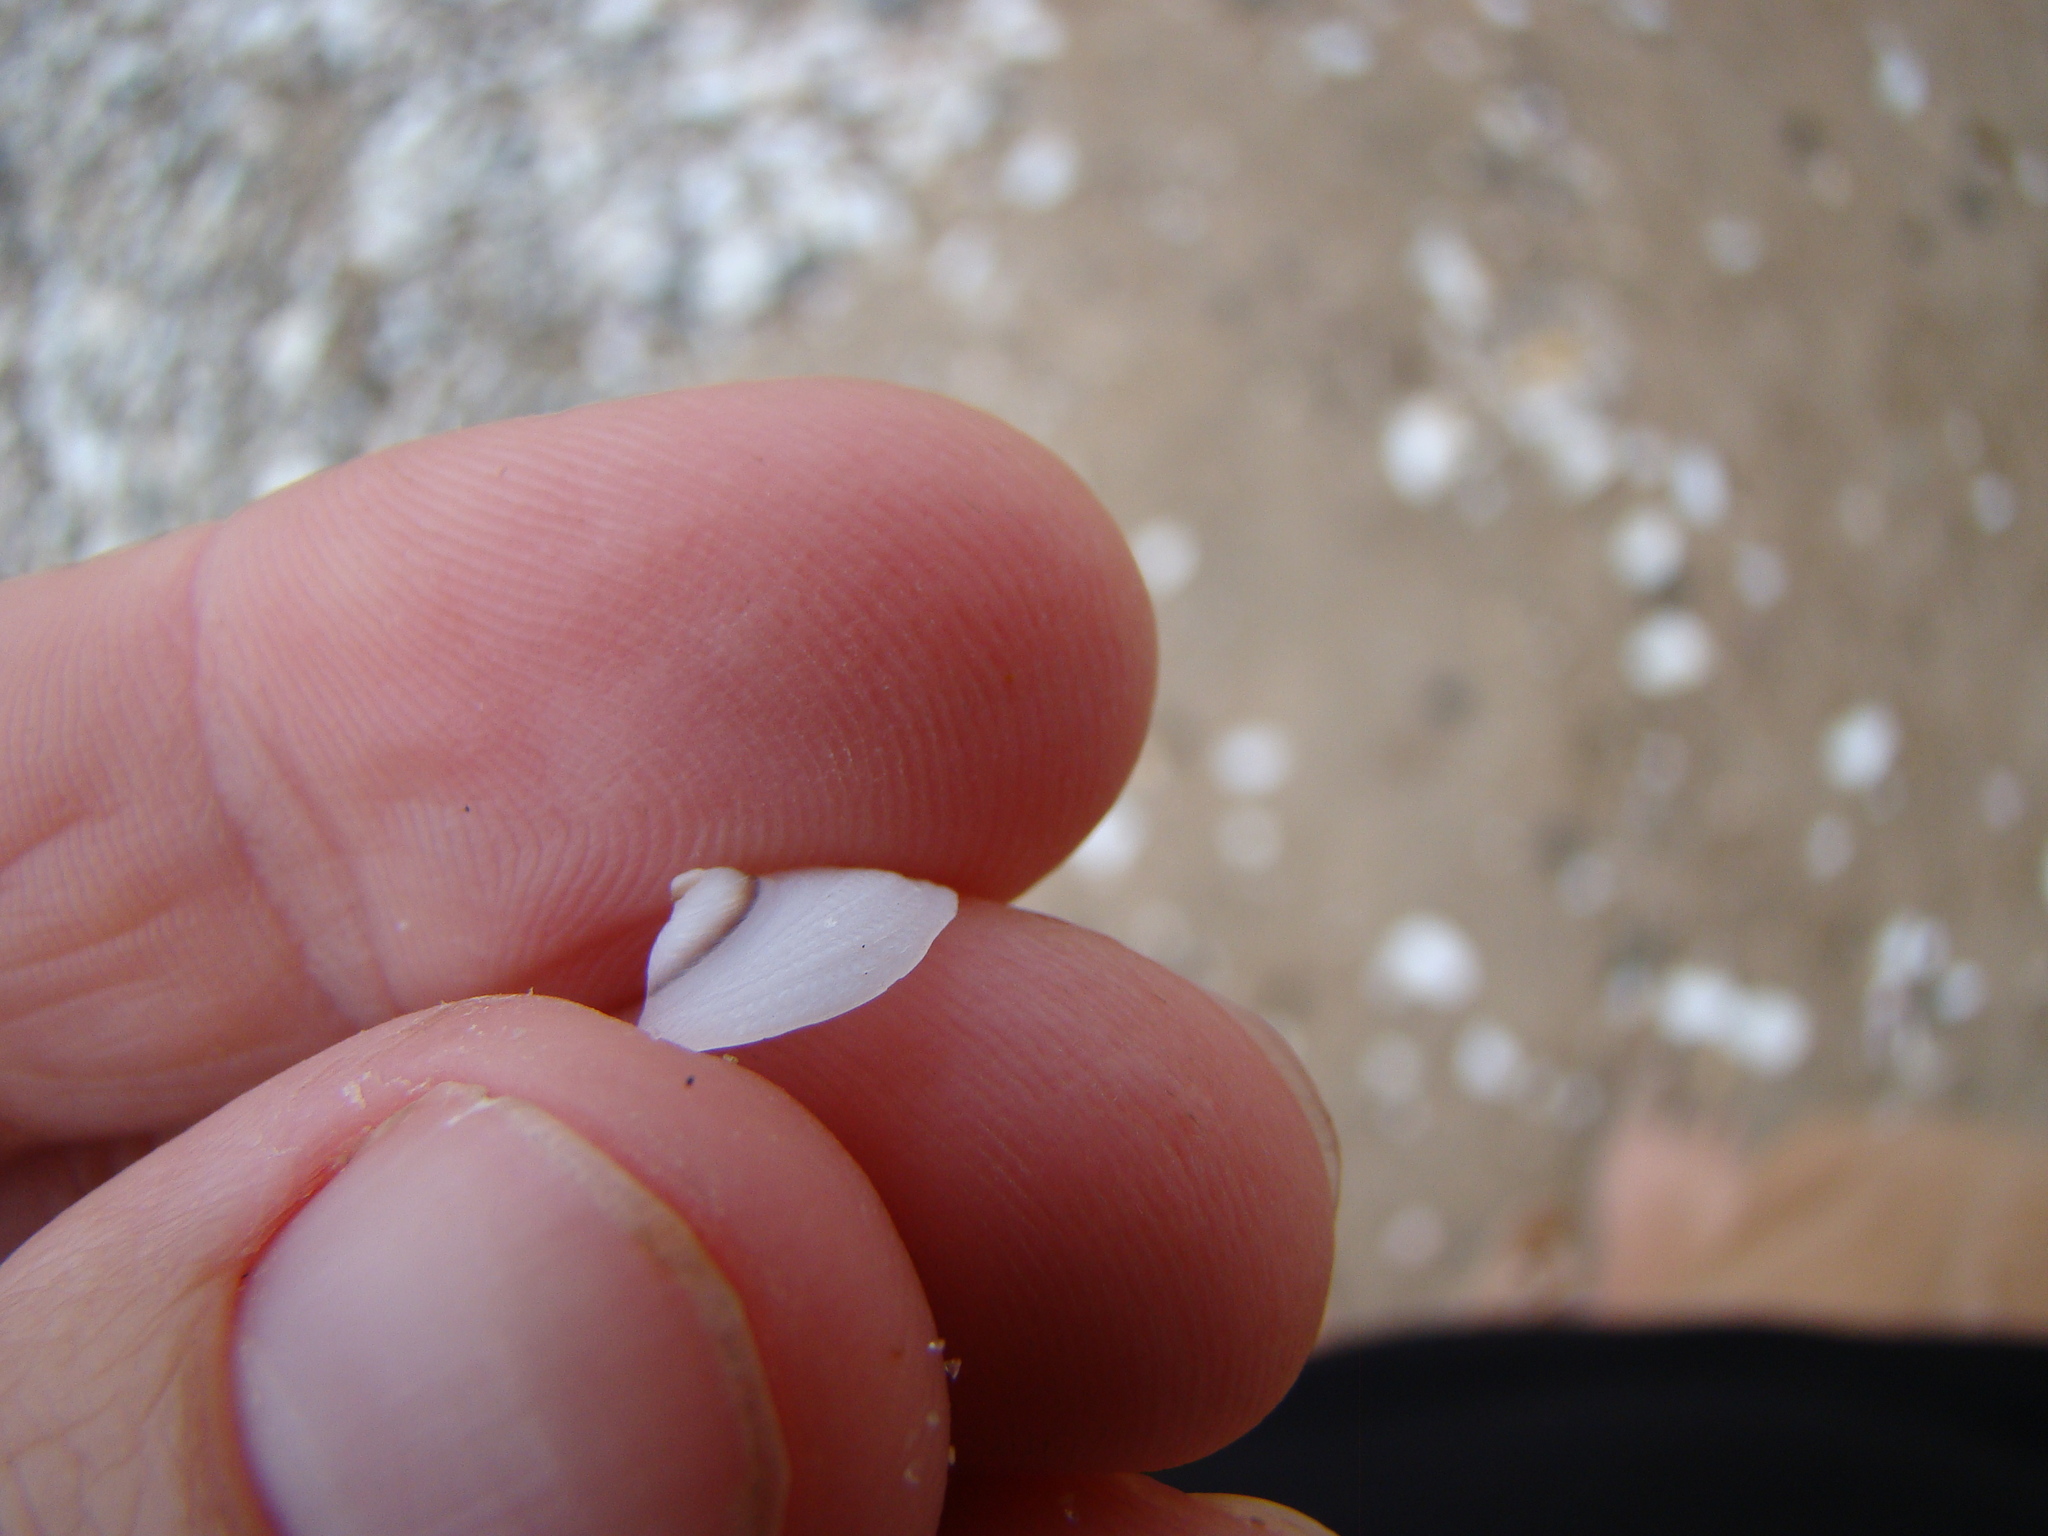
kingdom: Animalia
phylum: Mollusca
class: Gastropoda
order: Littorinimorpha
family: Calyptraeidae
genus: Sigapatella
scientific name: Sigapatella tenuis
